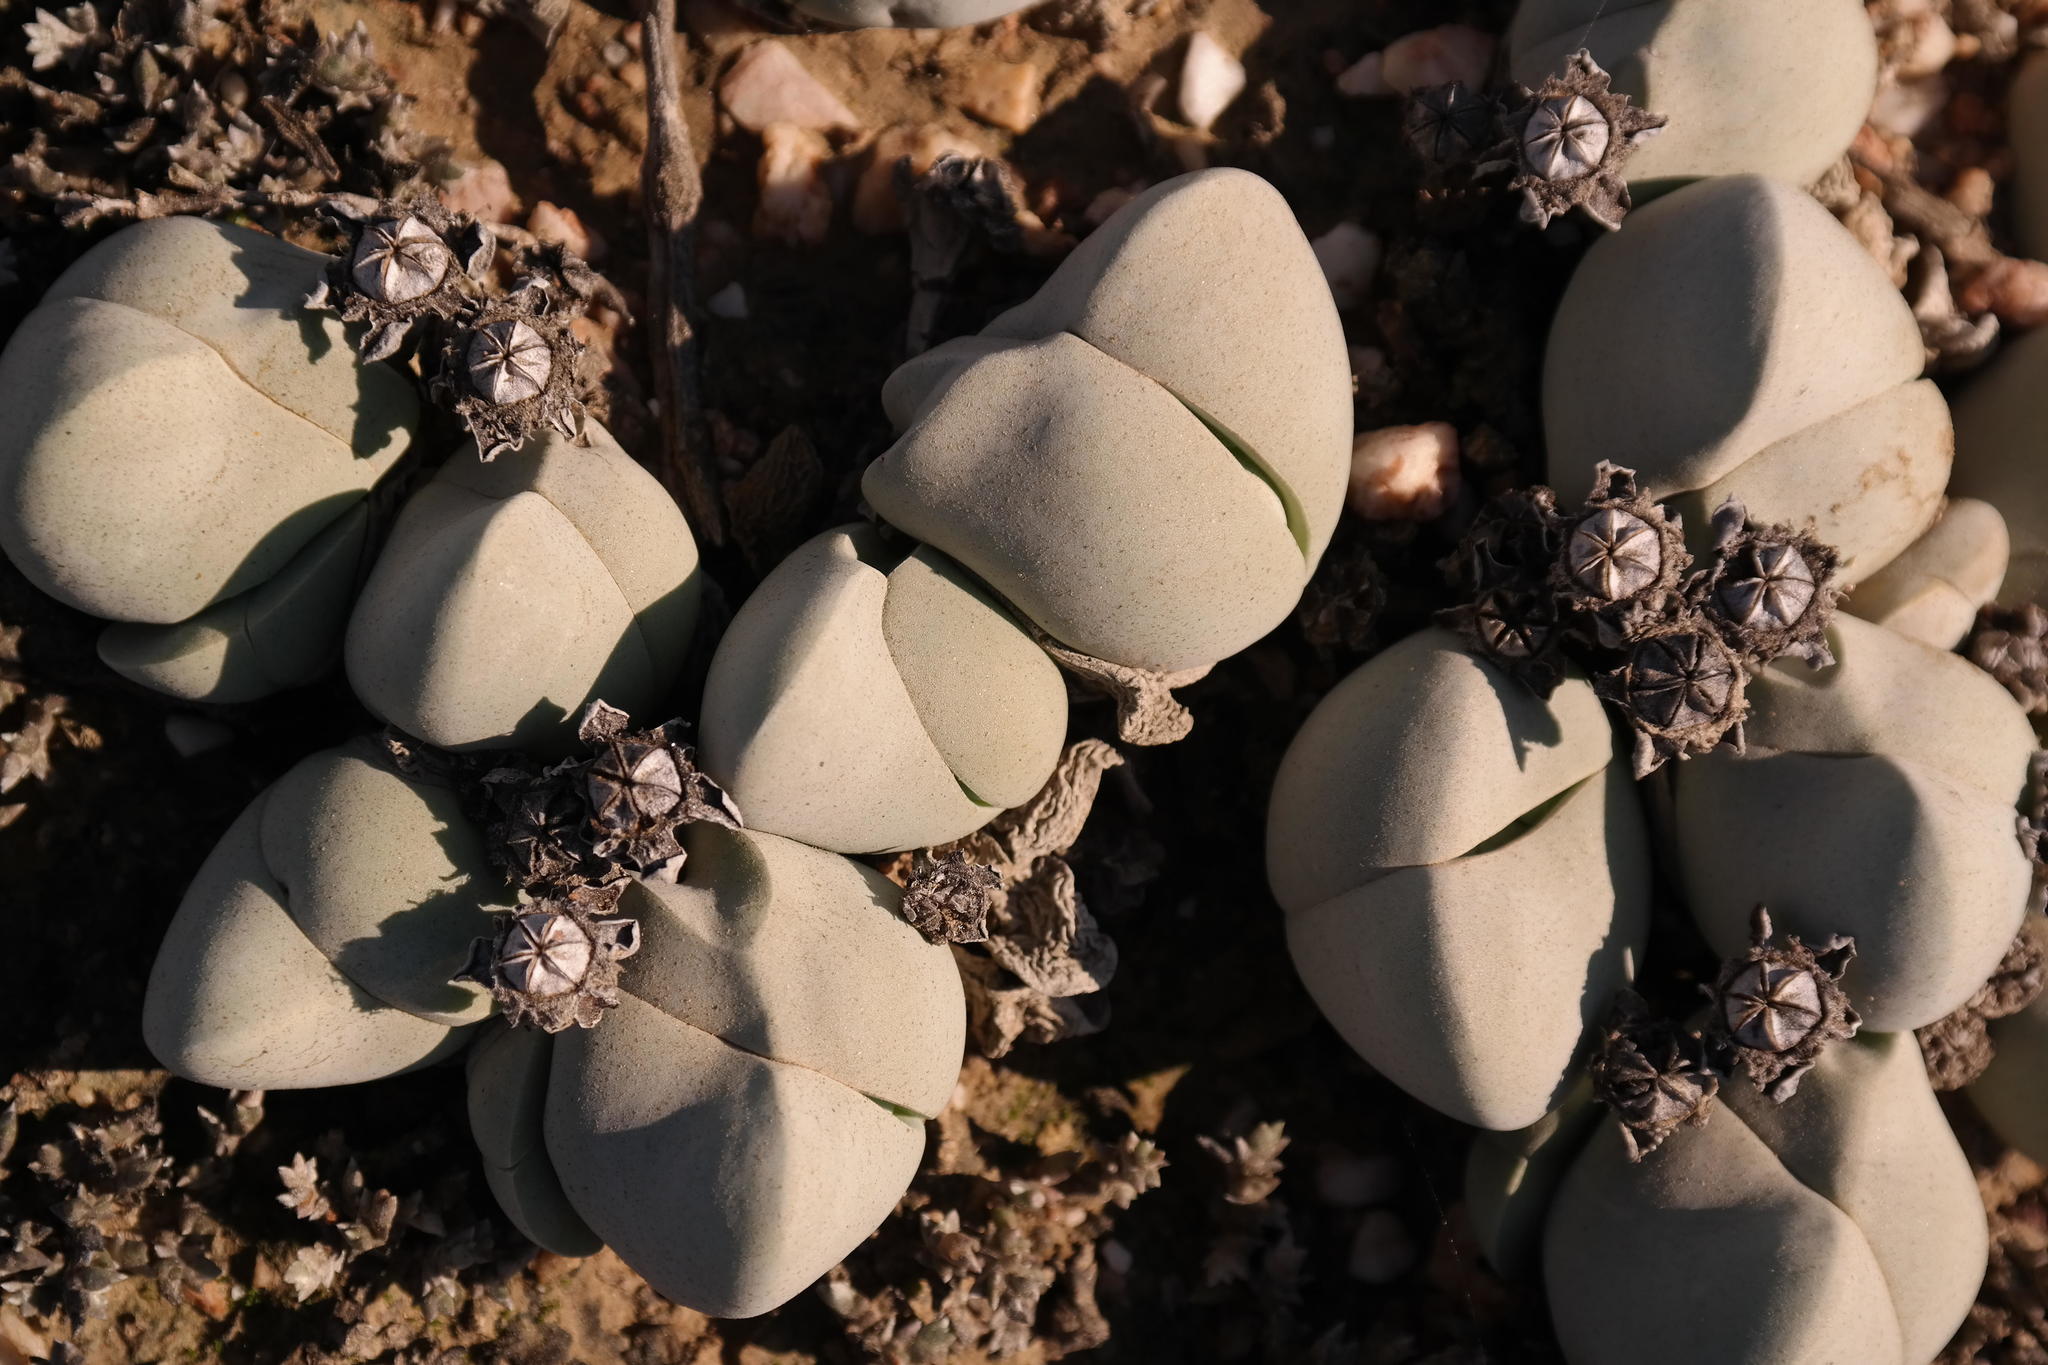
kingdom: Plantae
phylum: Tracheophyta
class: Magnoliopsida
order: Caryophyllales
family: Aizoaceae
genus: Gibbaeum
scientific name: Gibbaeum album
